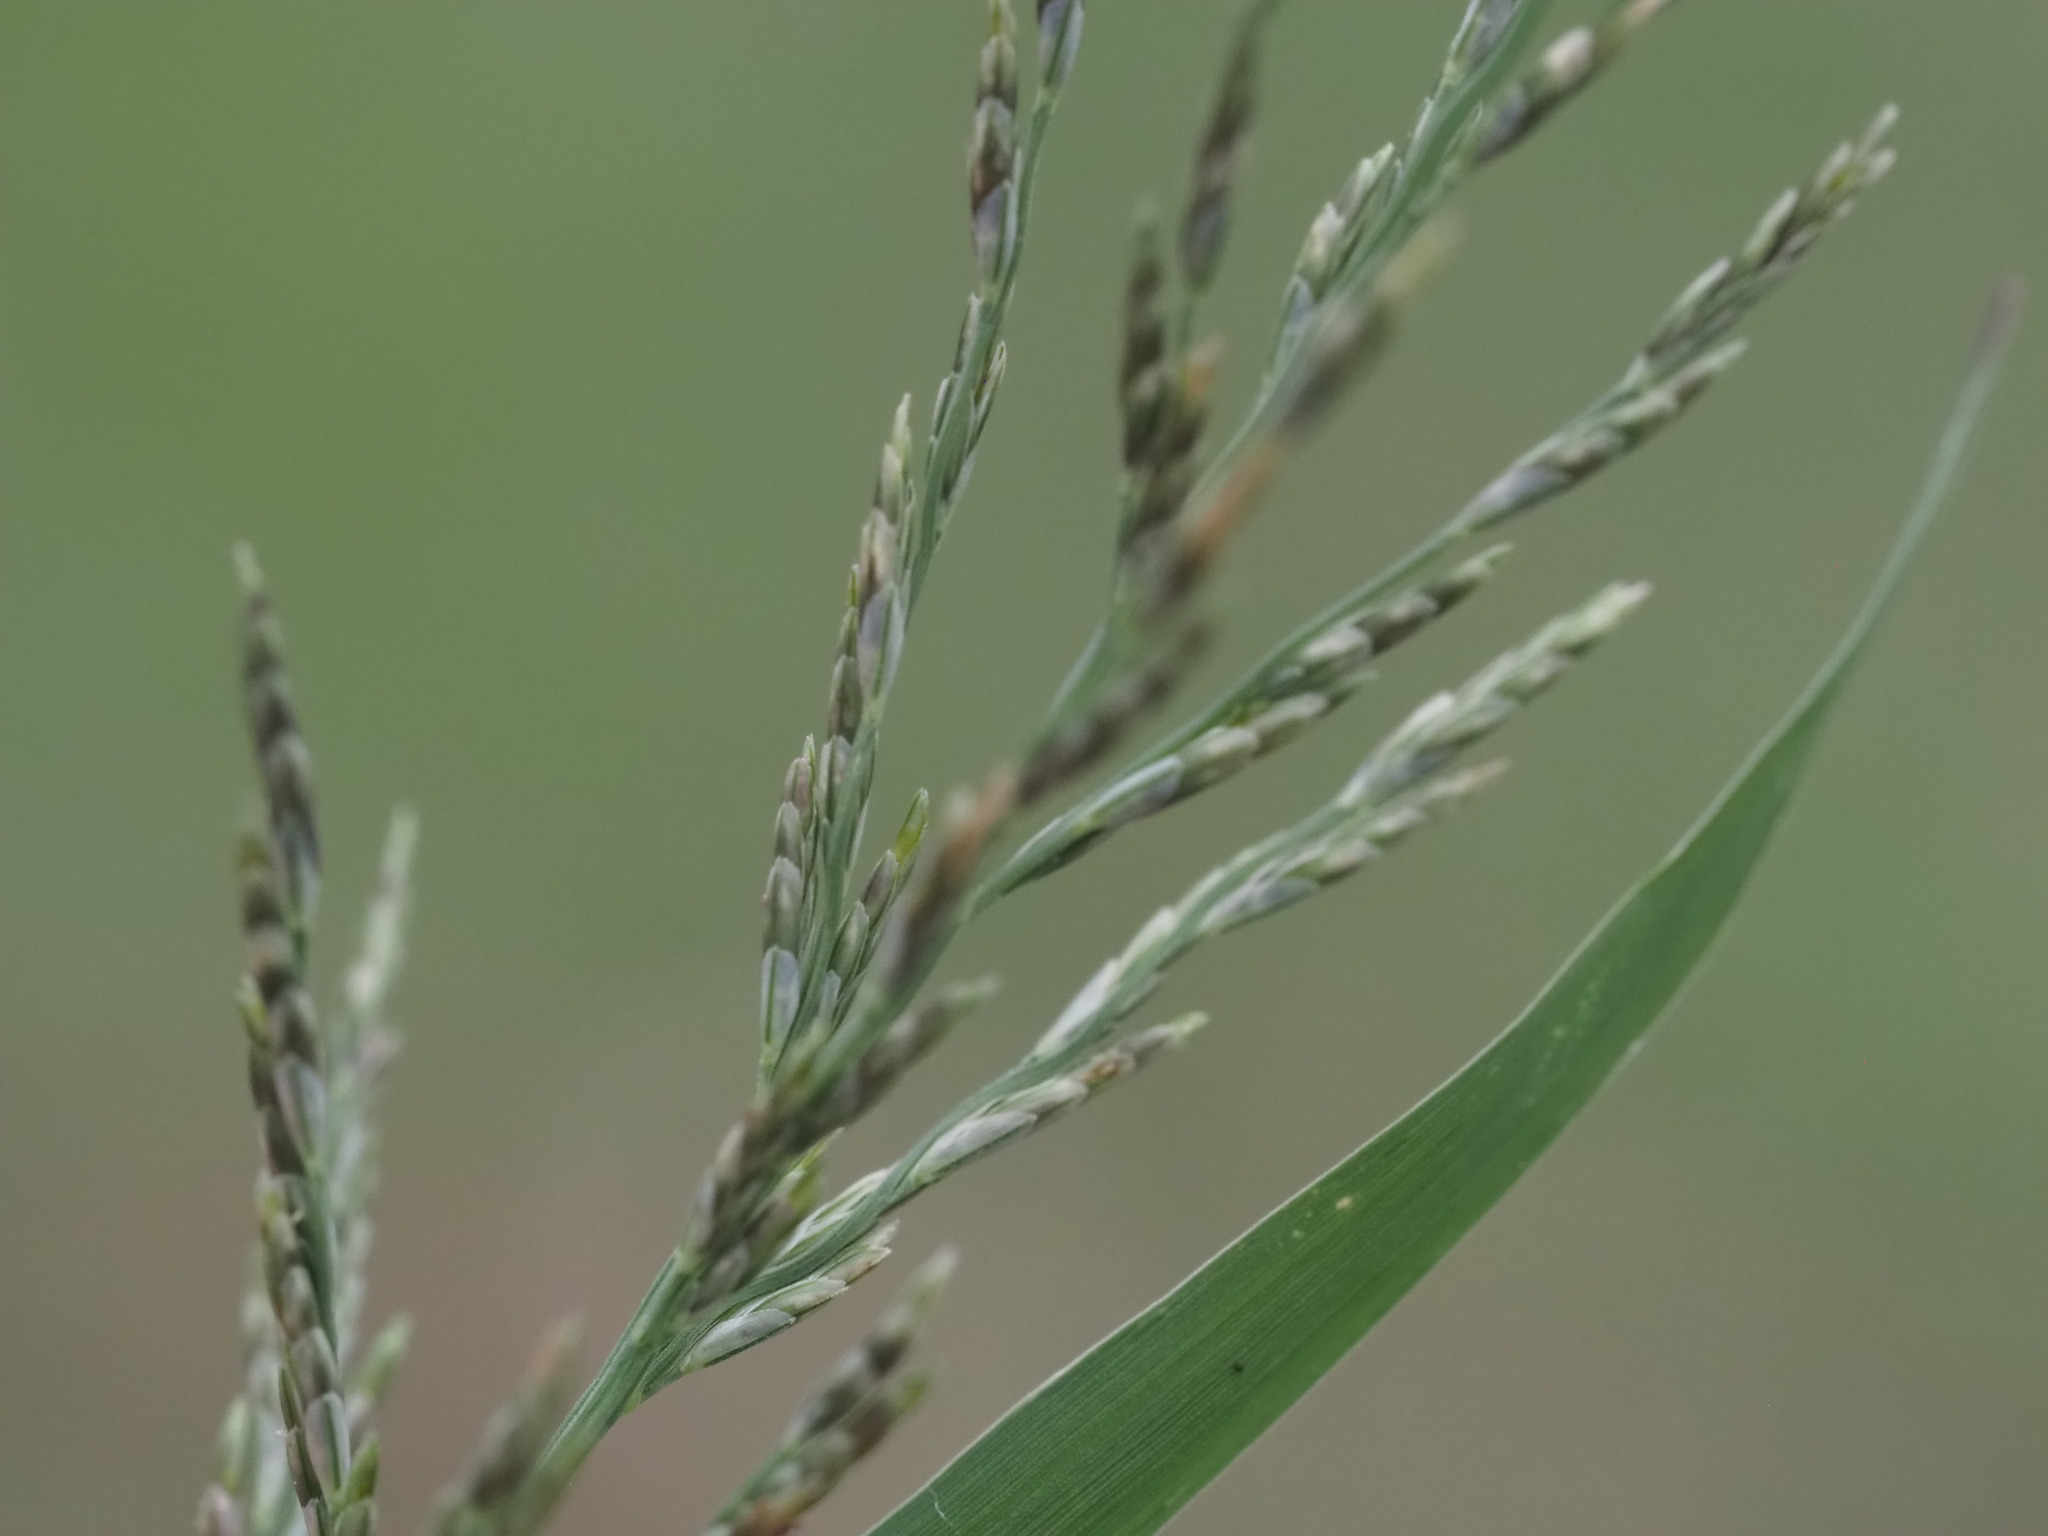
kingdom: Plantae
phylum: Tracheophyta
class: Liliopsida
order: Poales
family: Poaceae
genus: Diplachne
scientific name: Diplachne fusca
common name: Brown beetle grass
